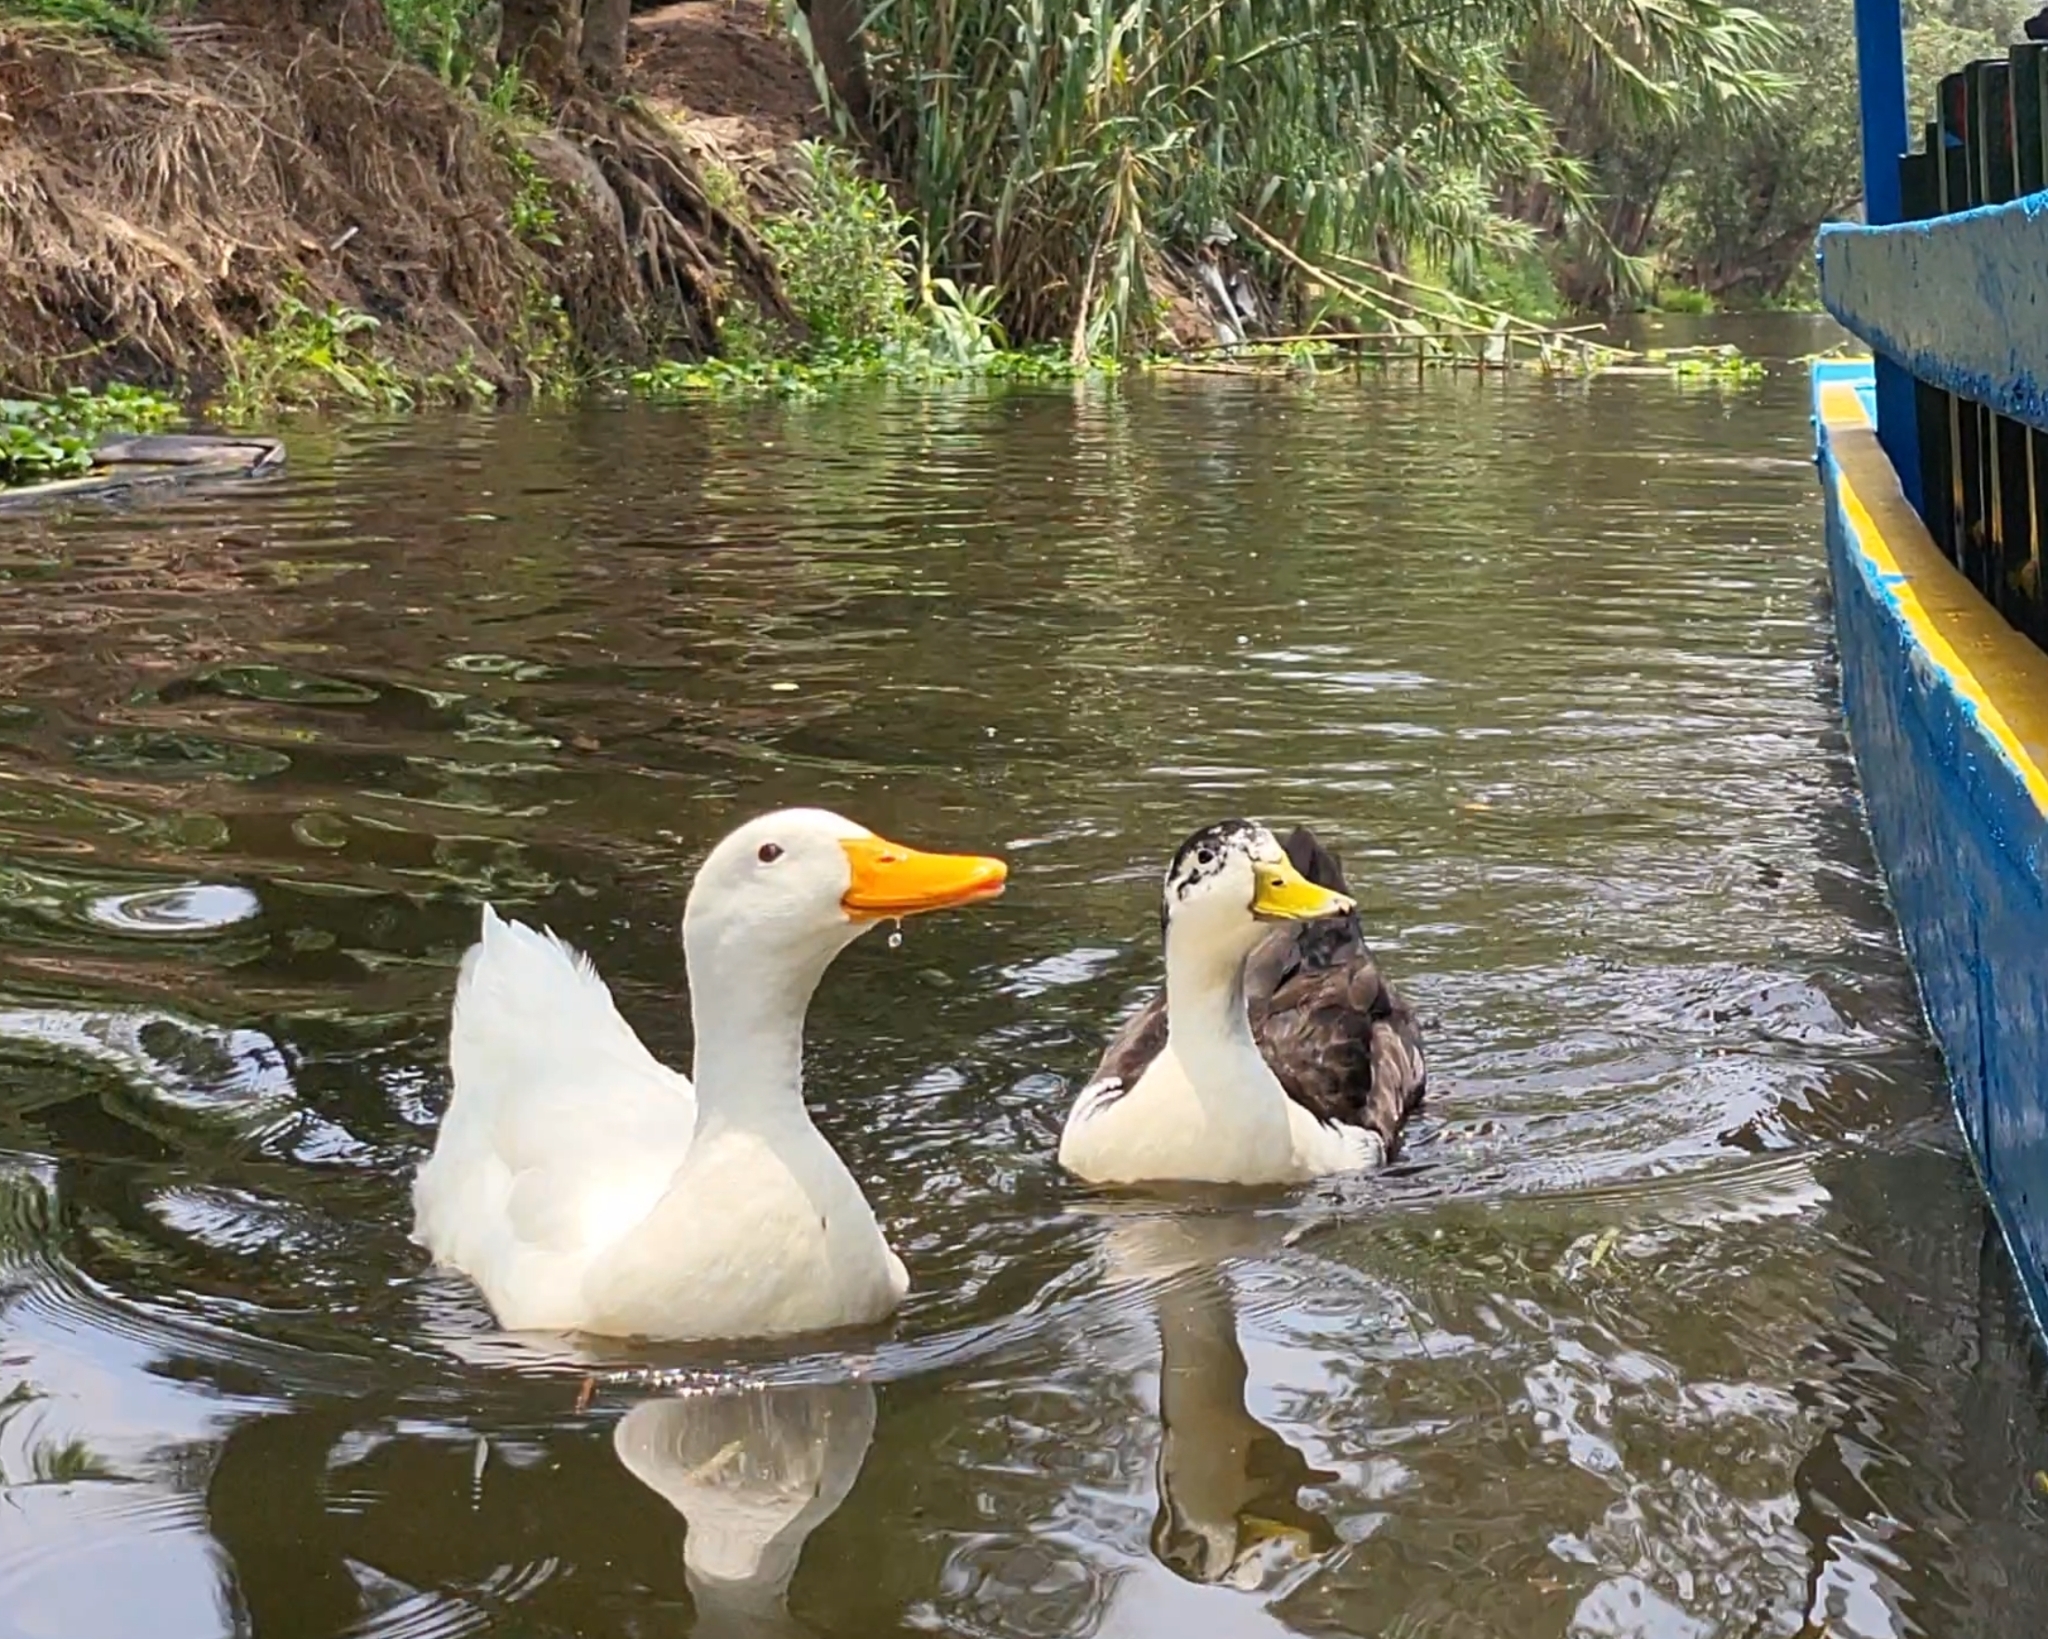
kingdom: Animalia
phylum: Chordata
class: Aves
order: Anseriformes
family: Anatidae
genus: Anas
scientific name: Anas platyrhynchos
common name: Mallard
